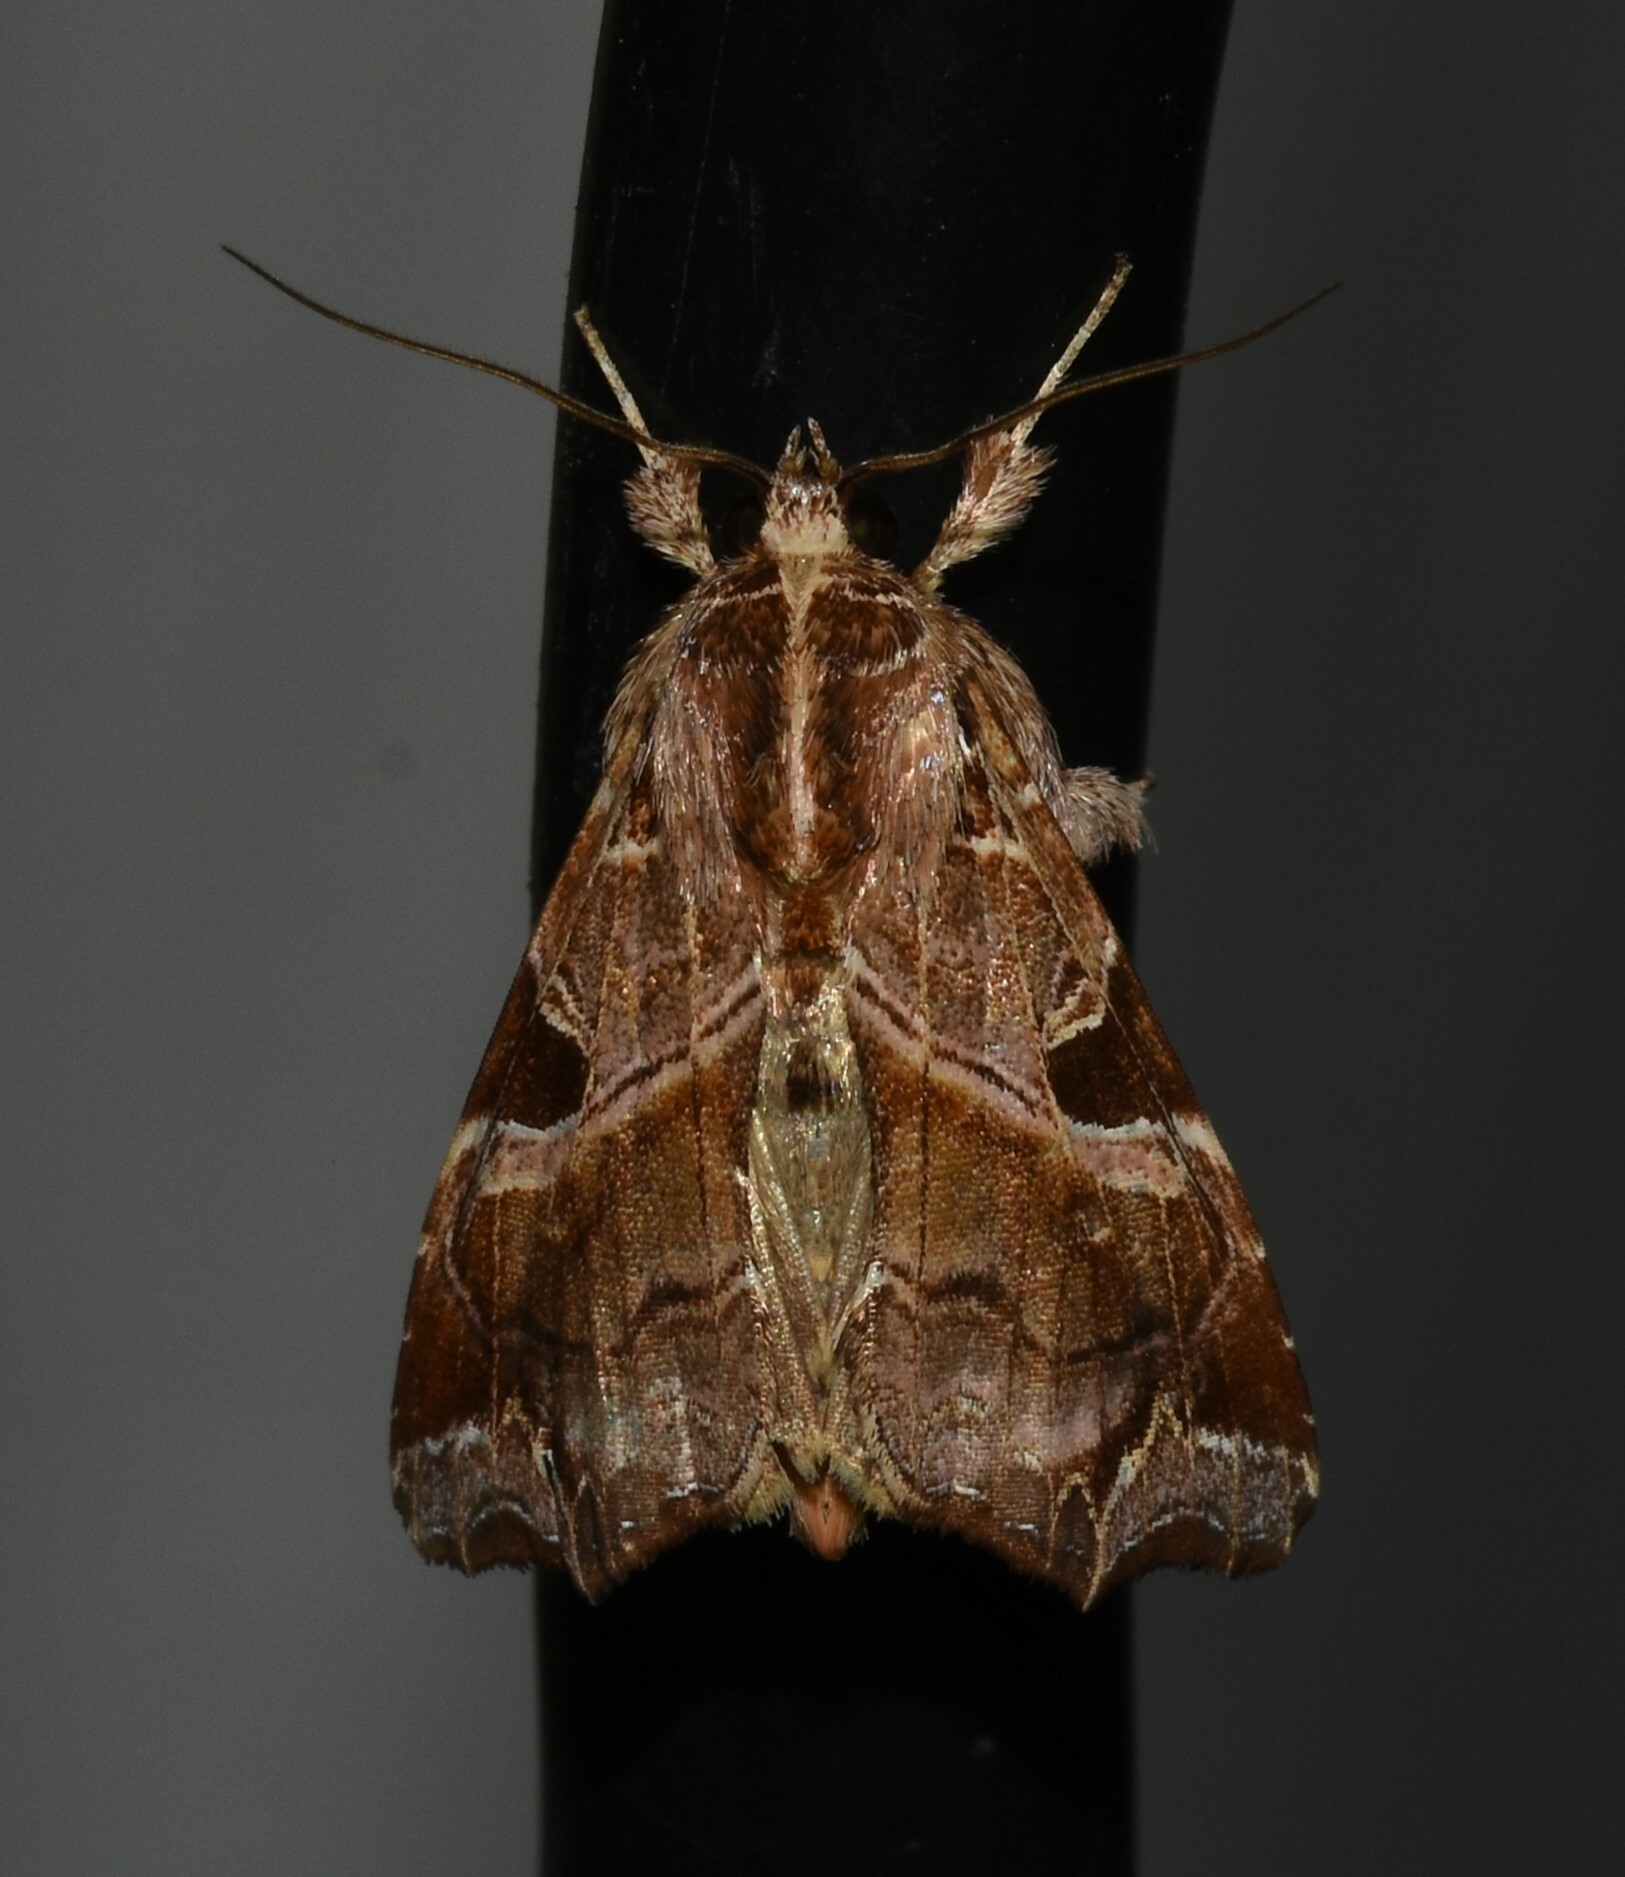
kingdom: Animalia
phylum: Arthropoda
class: Insecta
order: Lepidoptera
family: Noctuidae
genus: Callopistria
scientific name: Callopistria floridensis
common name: Florida fern moth
